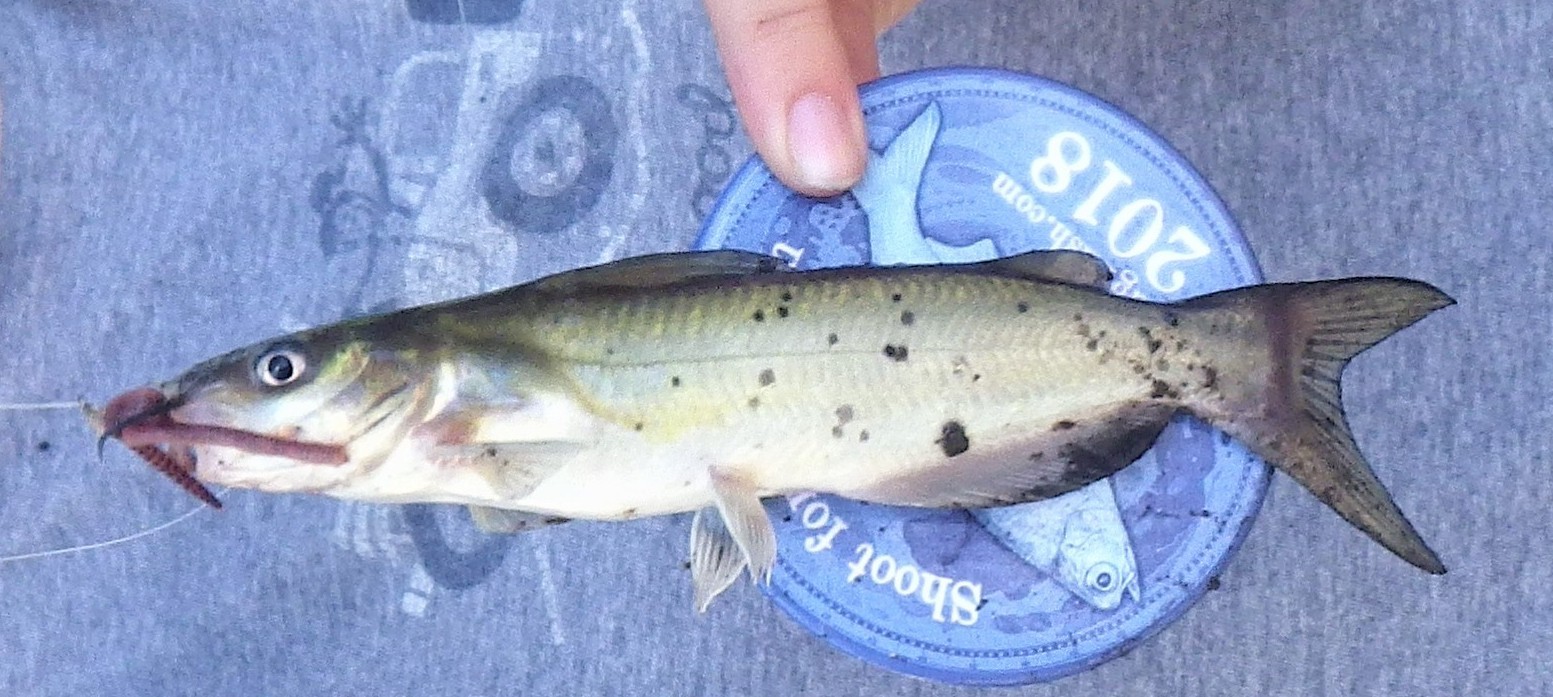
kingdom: Animalia
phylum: Chordata
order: Siluriformes
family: Ictaluridae
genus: Ictalurus
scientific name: Ictalurus punctatus
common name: Channel catfish
